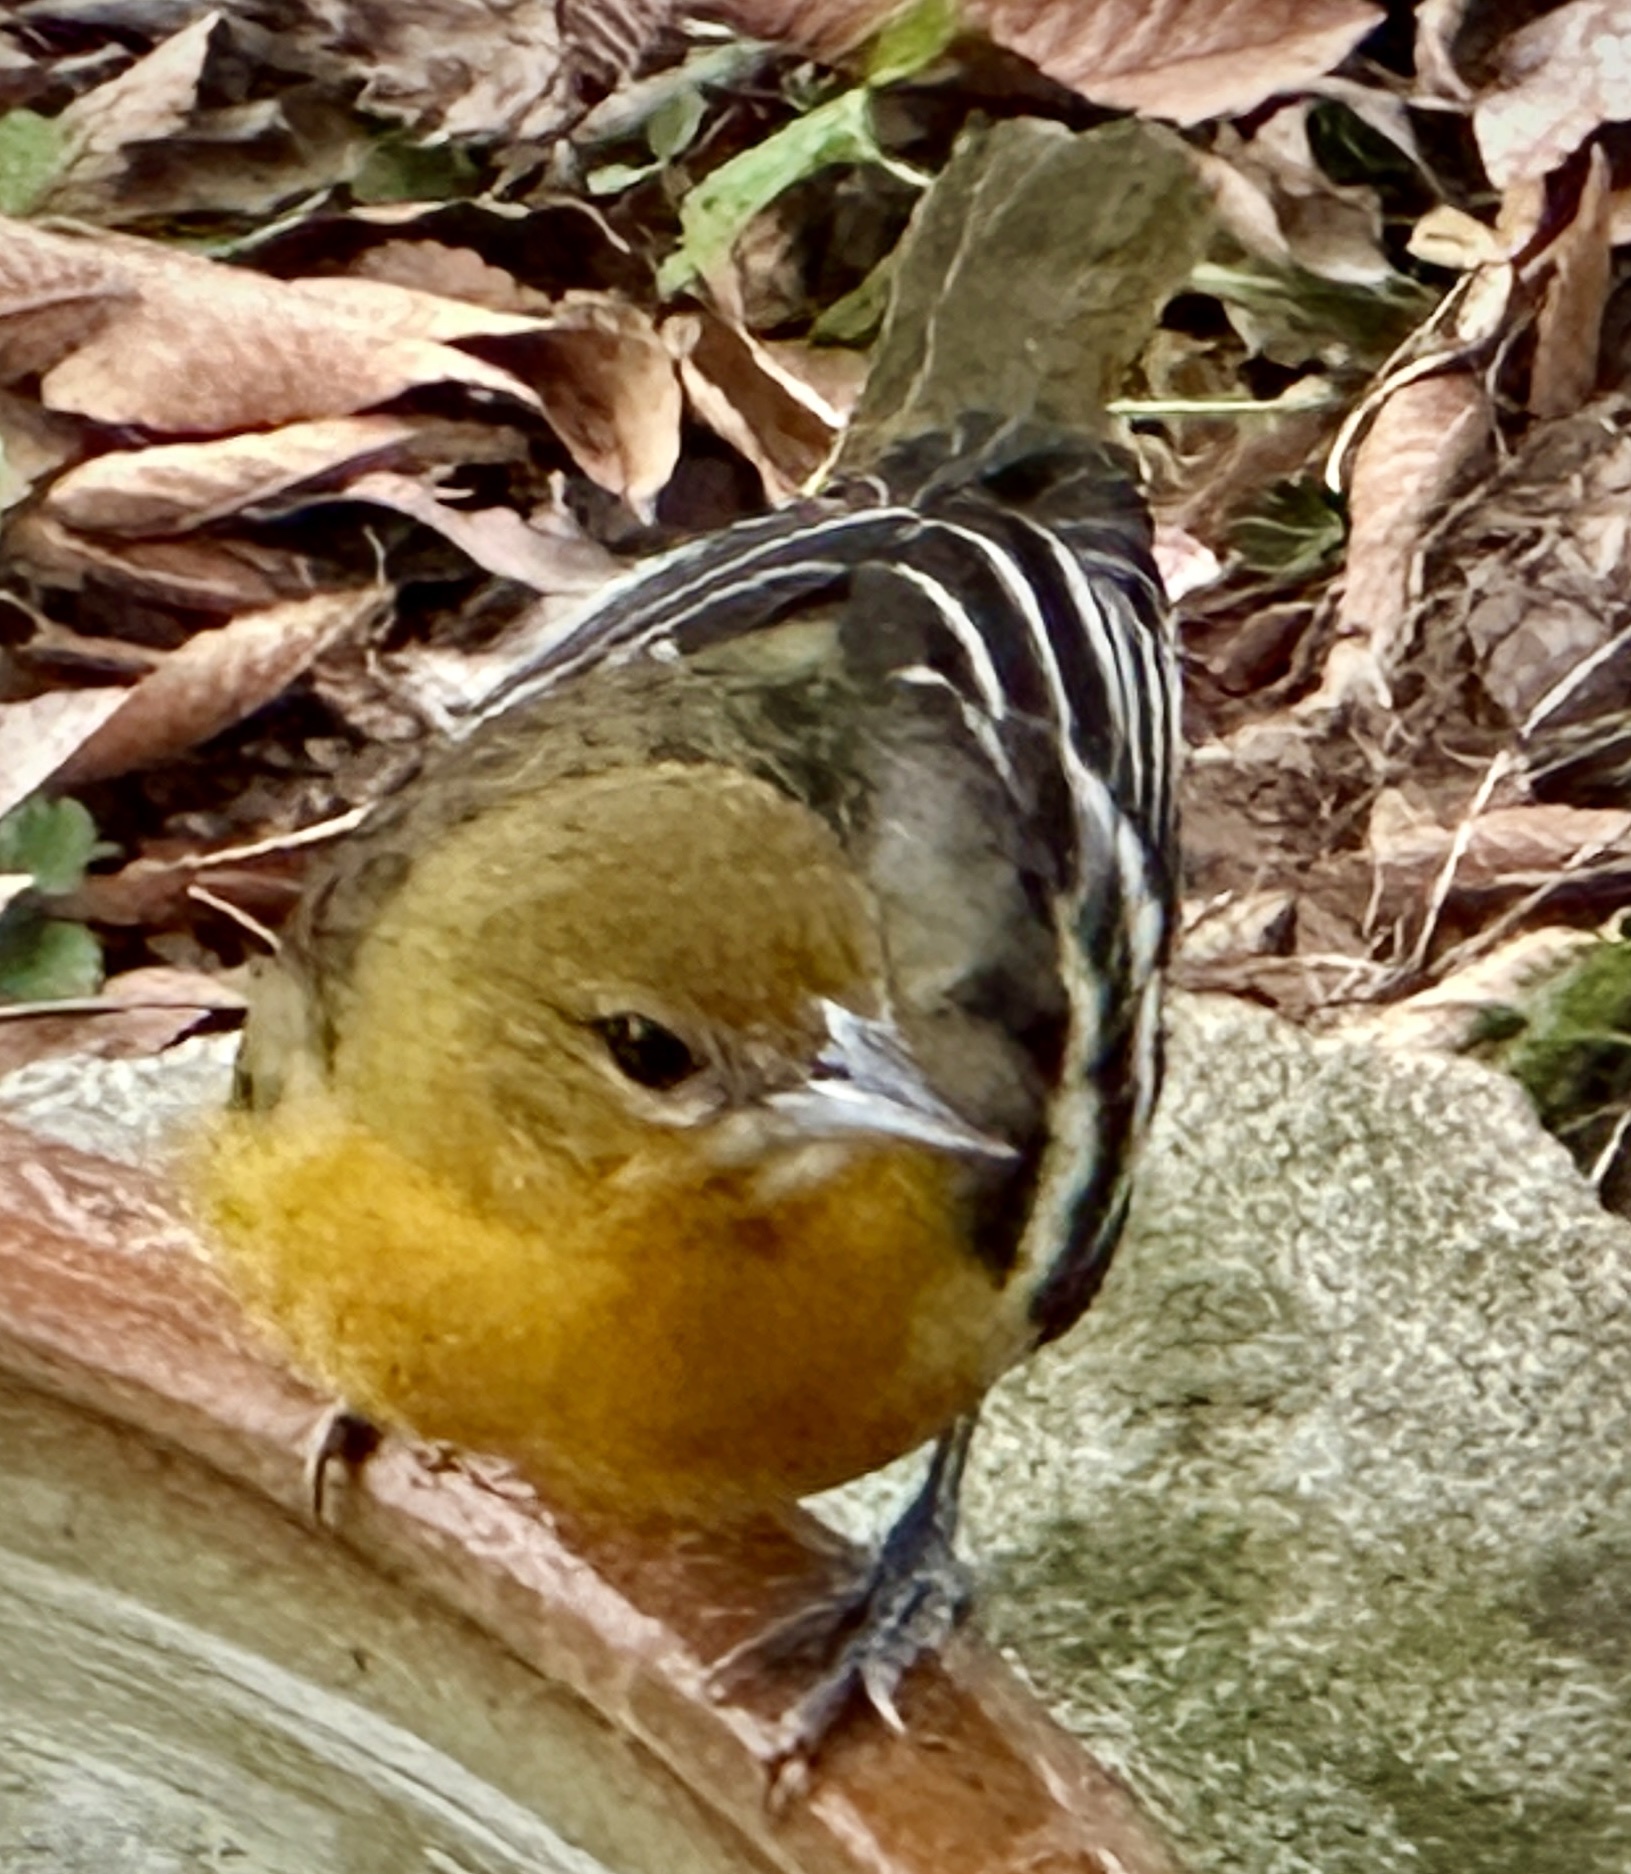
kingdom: Animalia
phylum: Chordata
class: Aves
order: Passeriformes
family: Icteridae
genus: Icterus
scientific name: Icterus galbula
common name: Baltimore oriole
